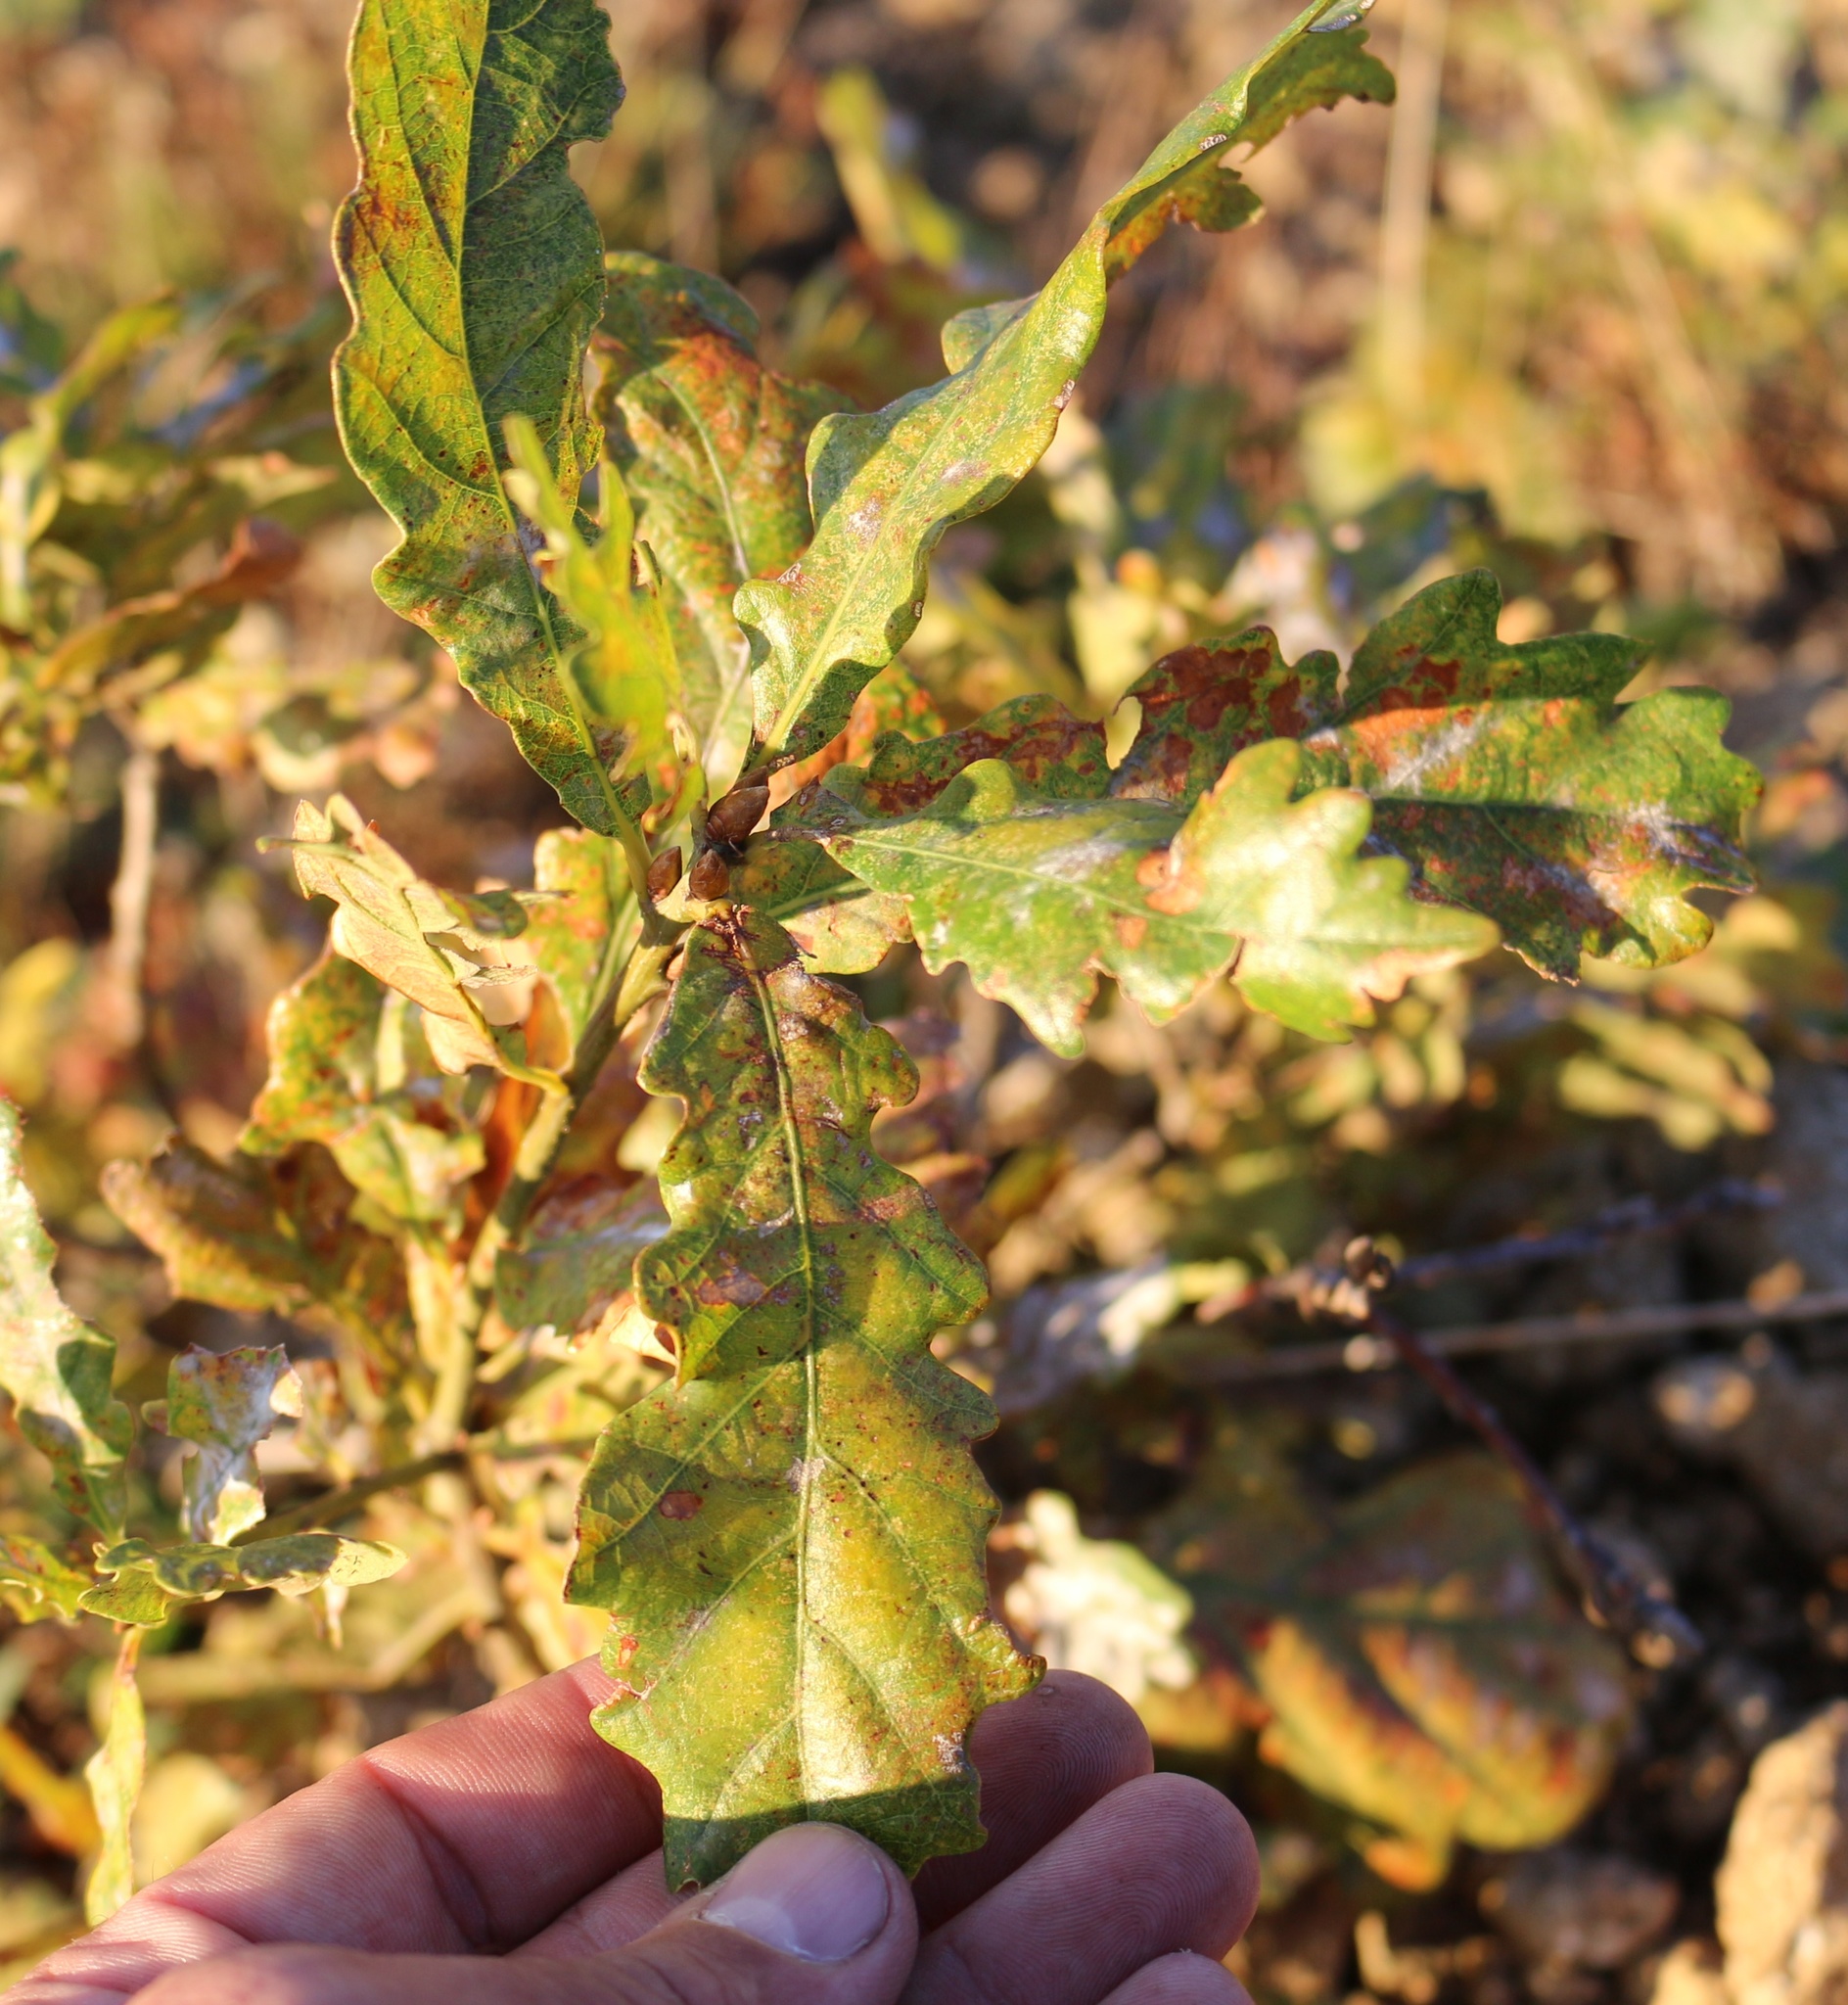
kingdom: Plantae
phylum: Tracheophyta
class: Magnoliopsida
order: Fagales
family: Fagaceae
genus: Quercus
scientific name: Quercus petraea
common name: Sessile oak
